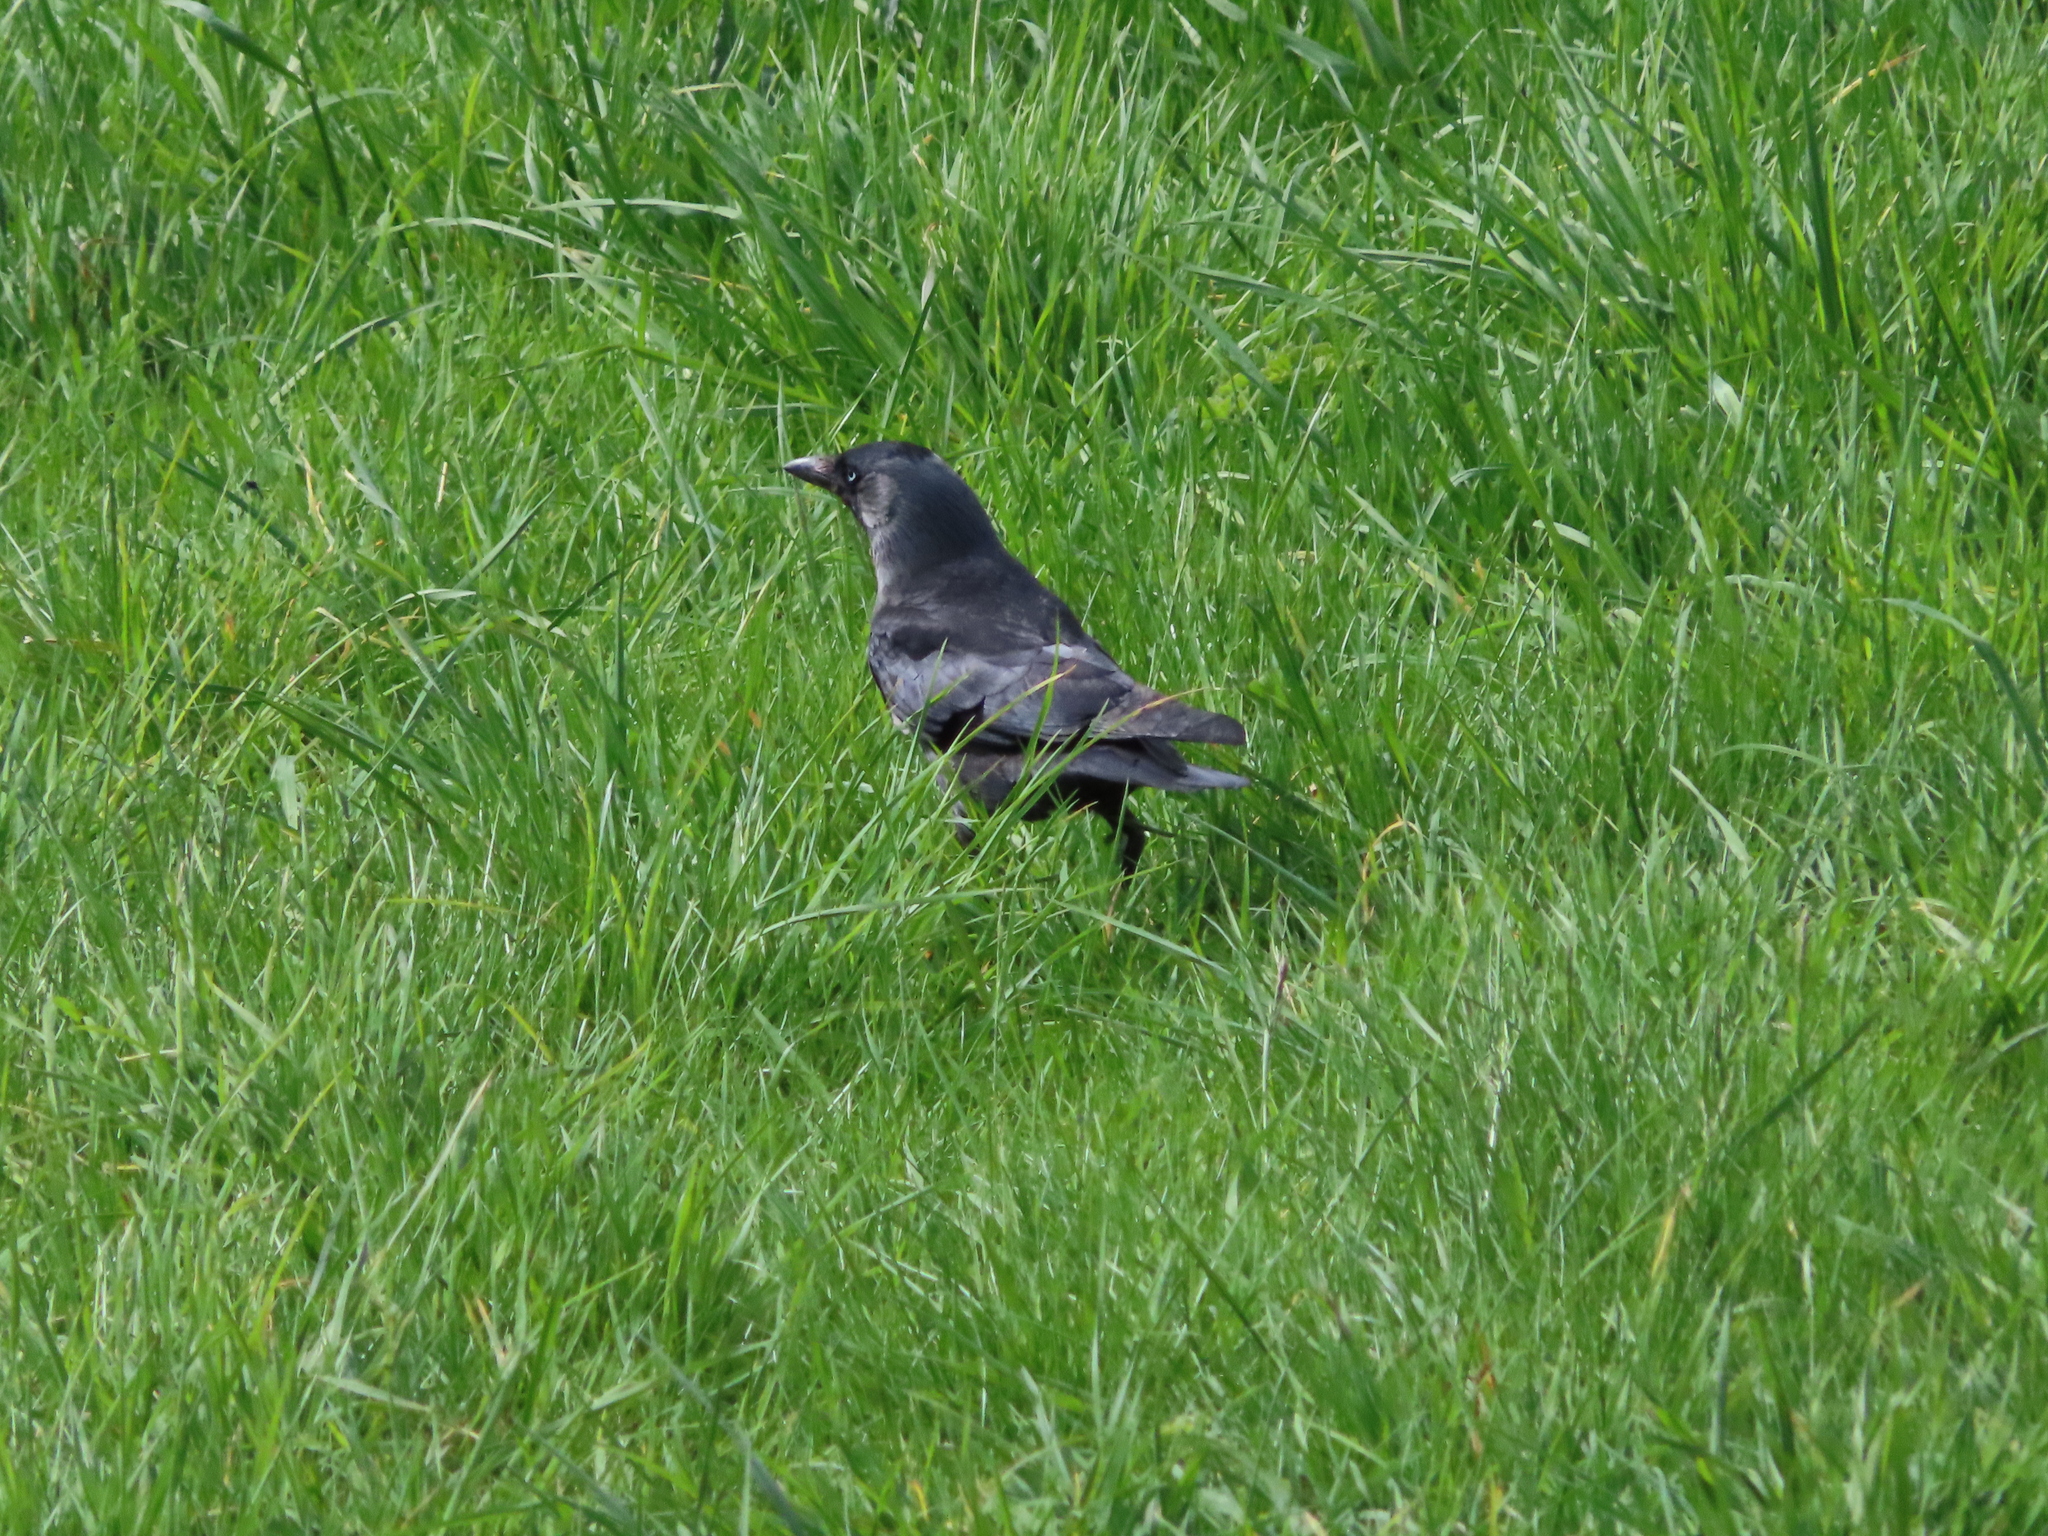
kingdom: Animalia
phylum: Chordata
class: Aves
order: Passeriformes
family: Corvidae
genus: Coloeus
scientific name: Coloeus monedula
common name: Western jackdaw
